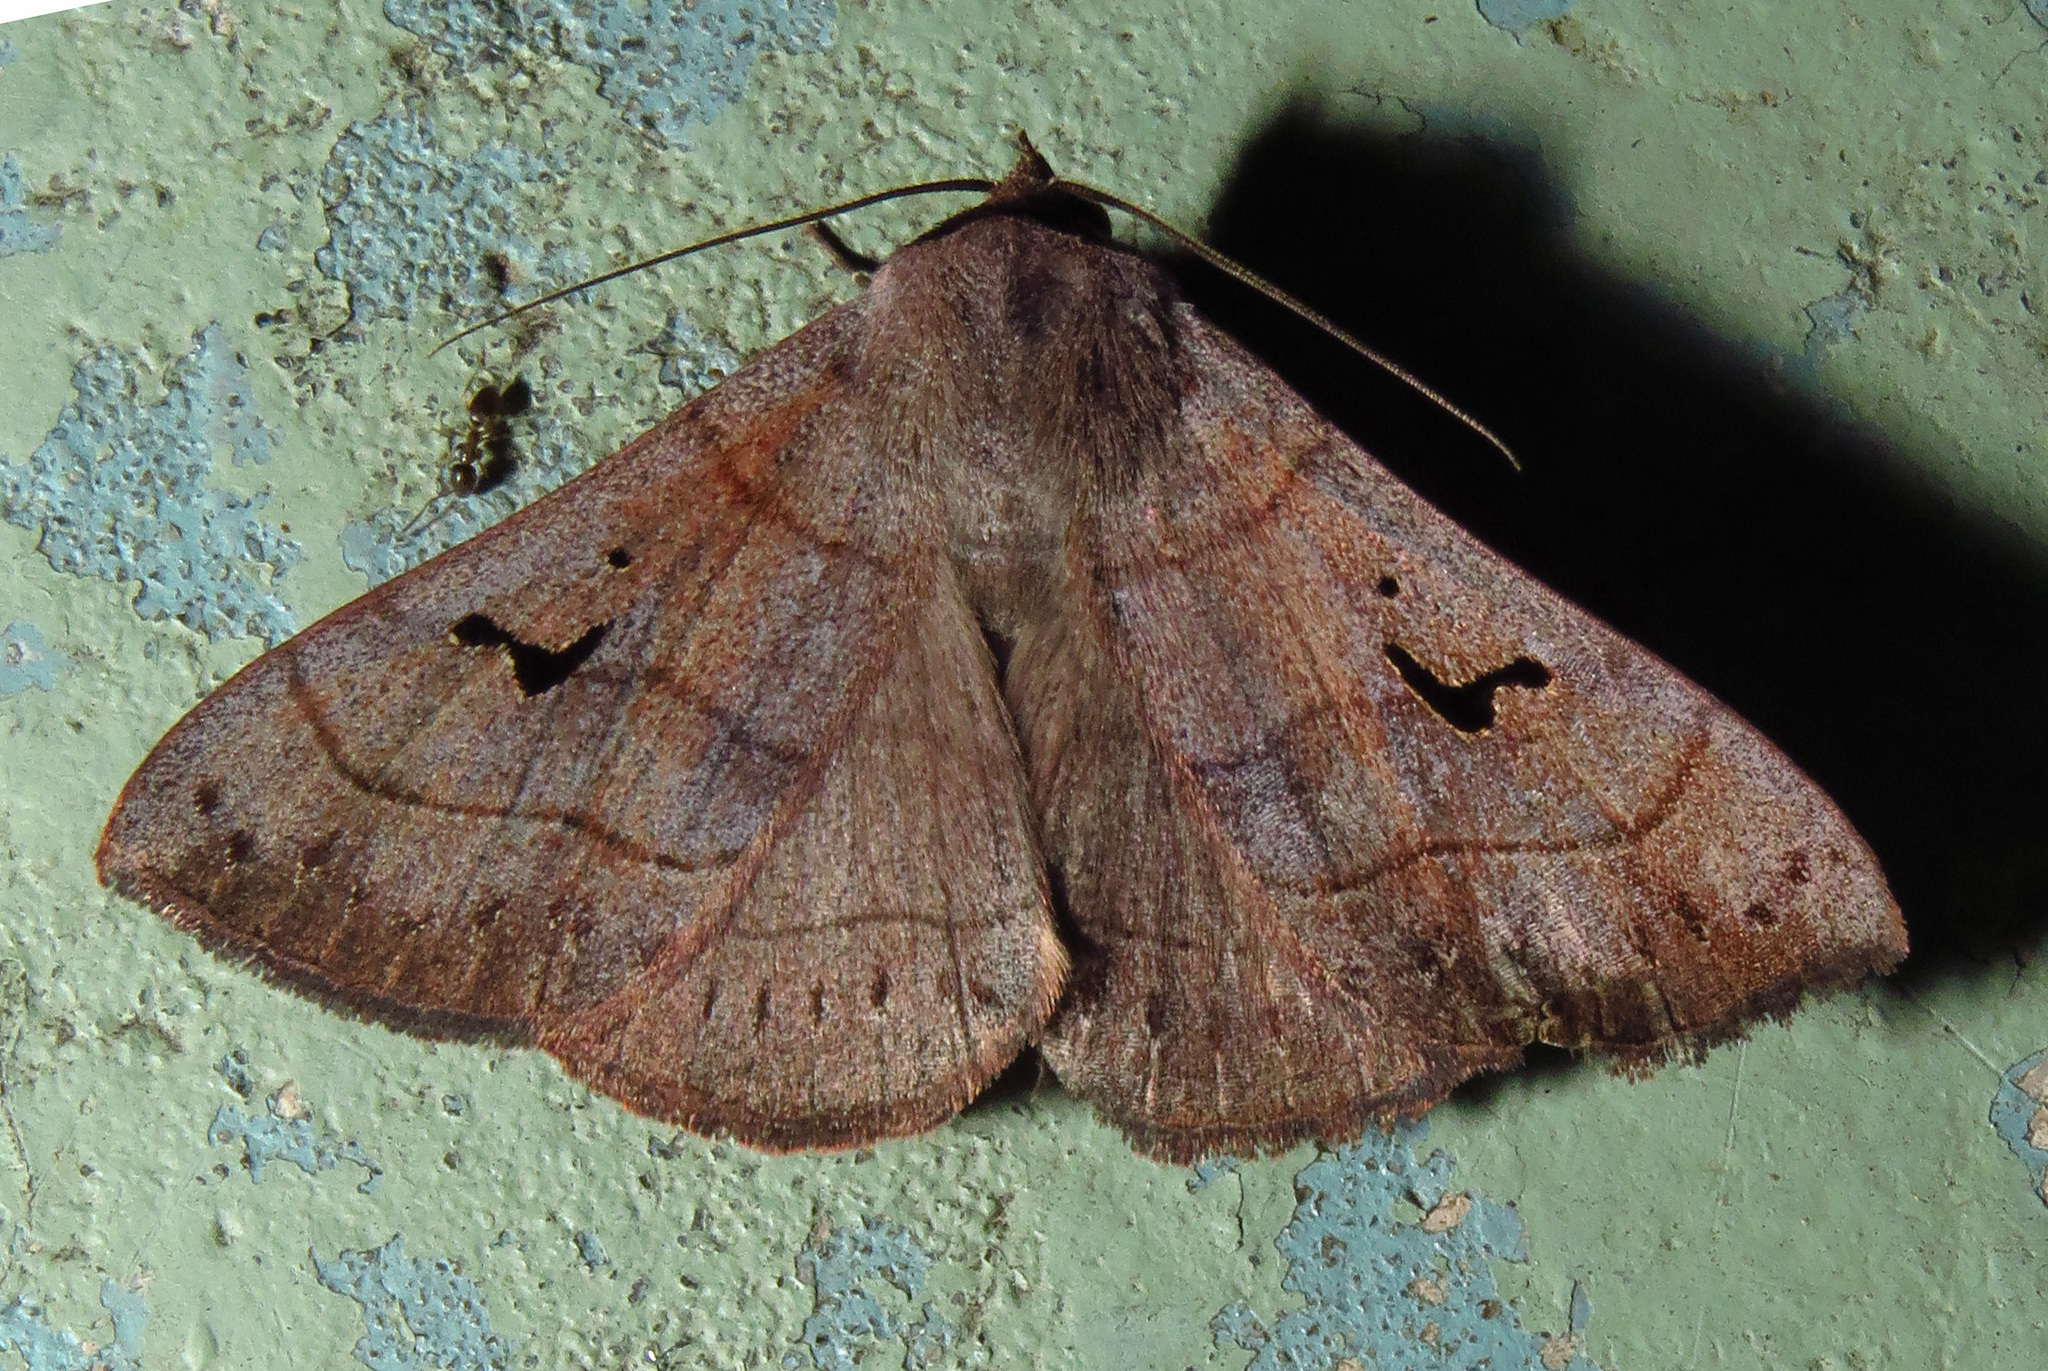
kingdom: Animalia
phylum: Arthropoda
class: Insecta
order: Lepidoptera
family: Erebidae
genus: Panopoda
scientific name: Panopoda carneicosta
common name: Brown panopoda moth
